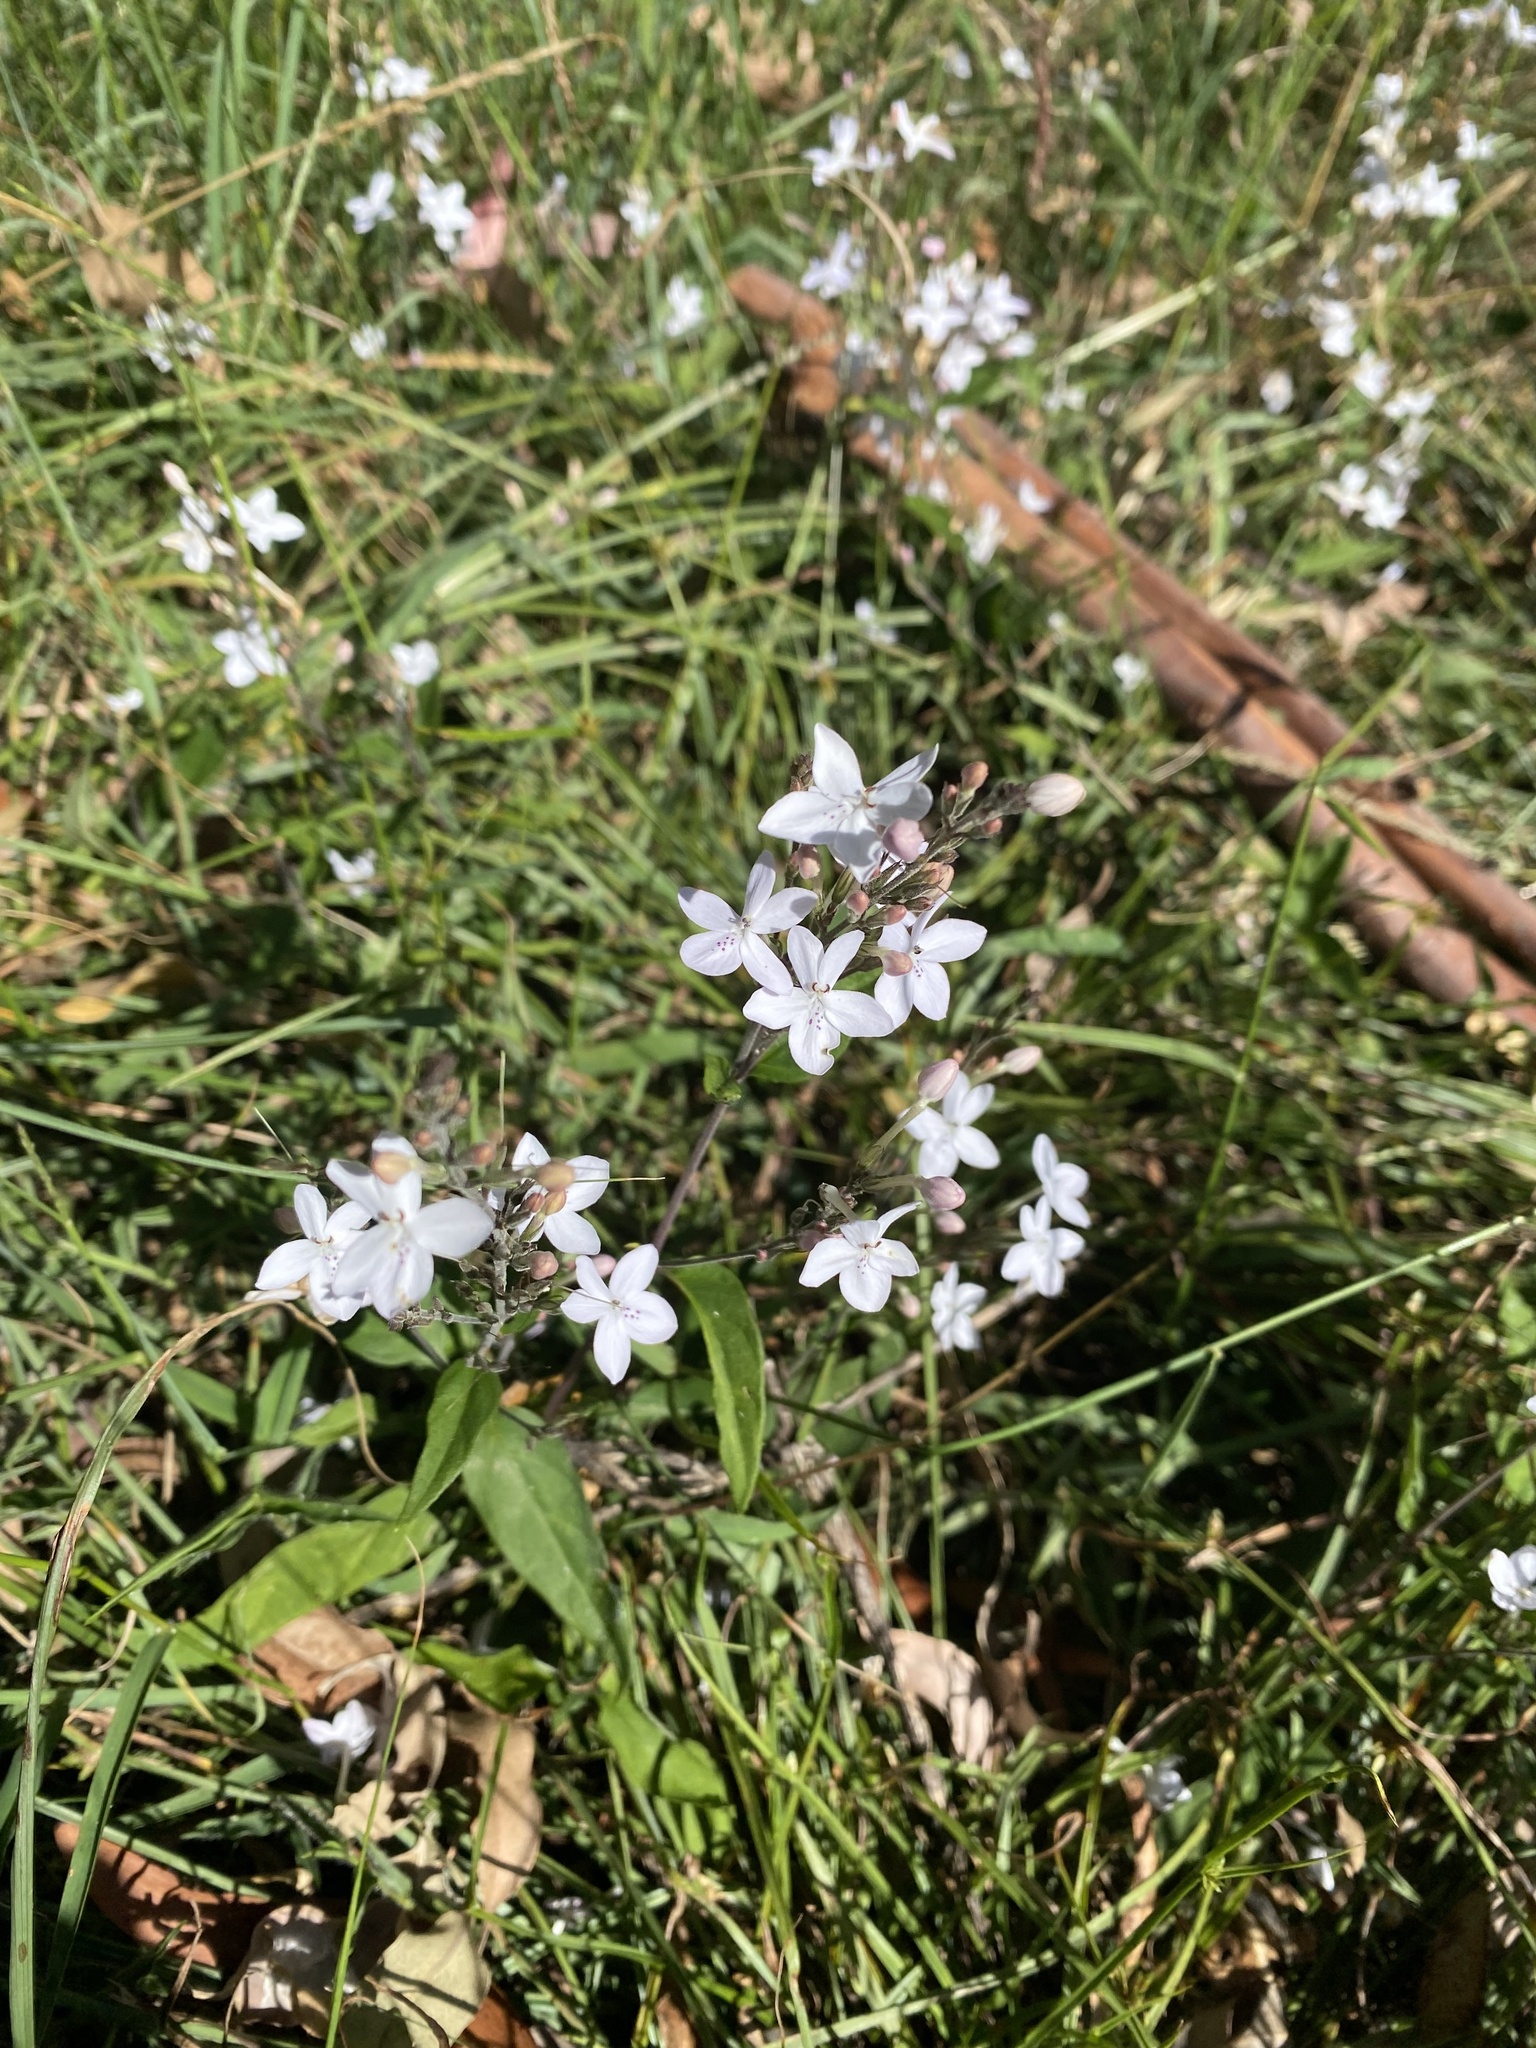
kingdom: Plantae
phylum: Tracheophyta
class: Magnoliopsida
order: Lamiales
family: Acanthaceae
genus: Pseuderanthemum
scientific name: Pseuderanthemum variabile
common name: Night and afternoon
